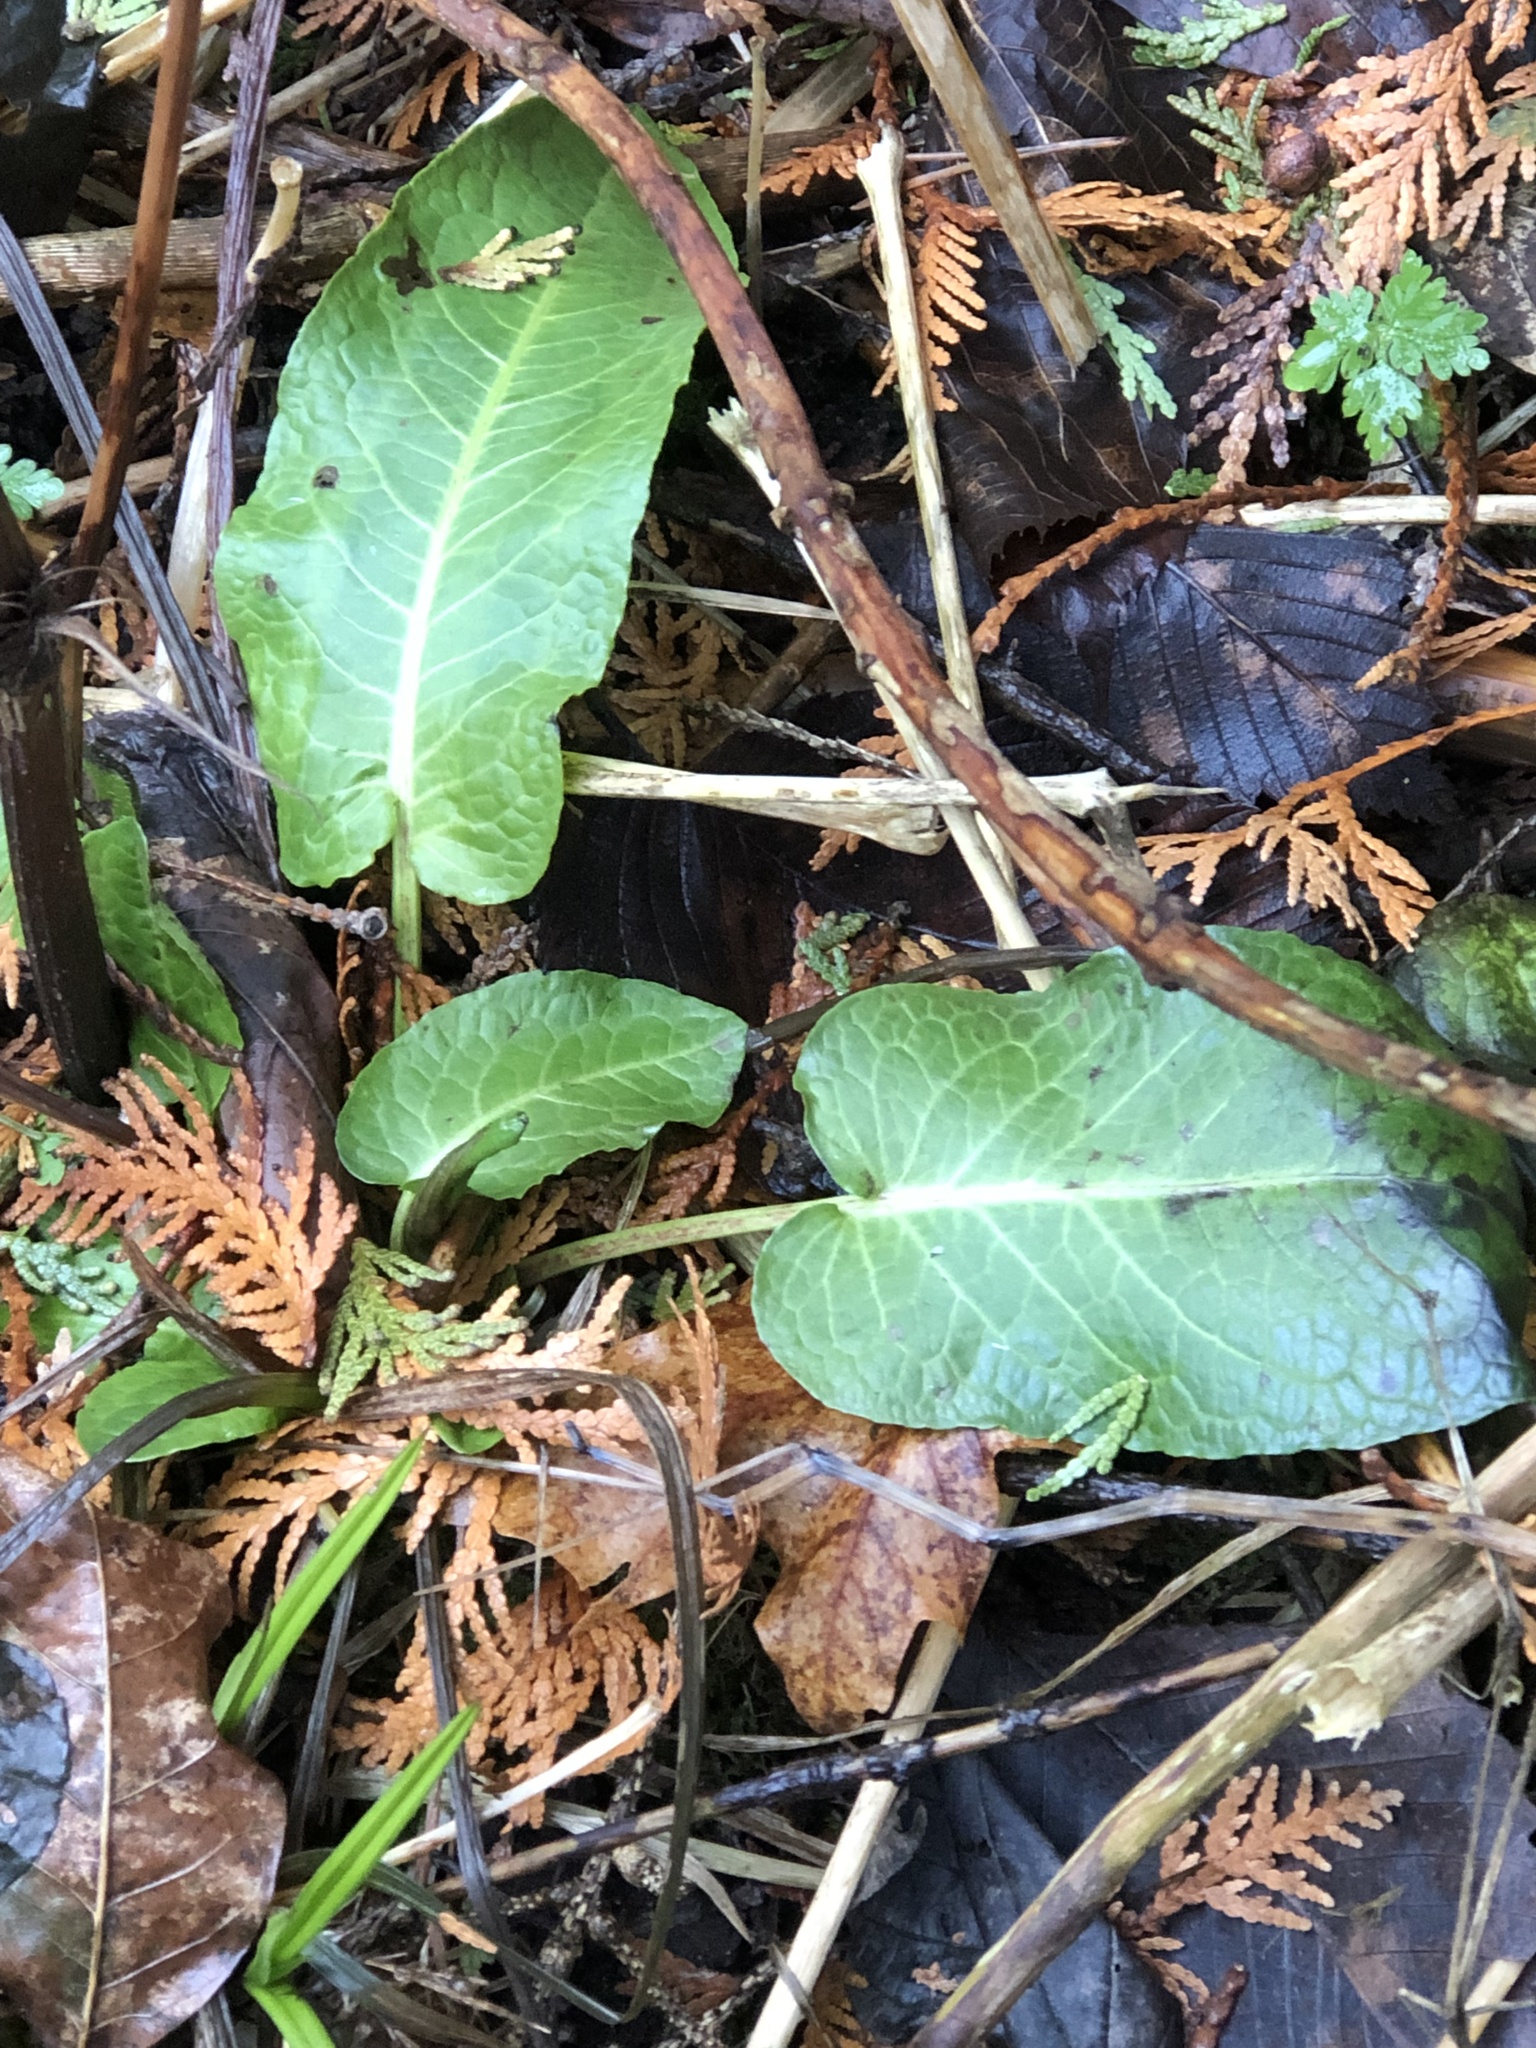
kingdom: Plantae
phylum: Tracheophyta
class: Magnoliopsida
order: Caryophyllales
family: Polygonaceae
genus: Rumex
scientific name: Rumex obtusifolius
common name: Bitter dock
